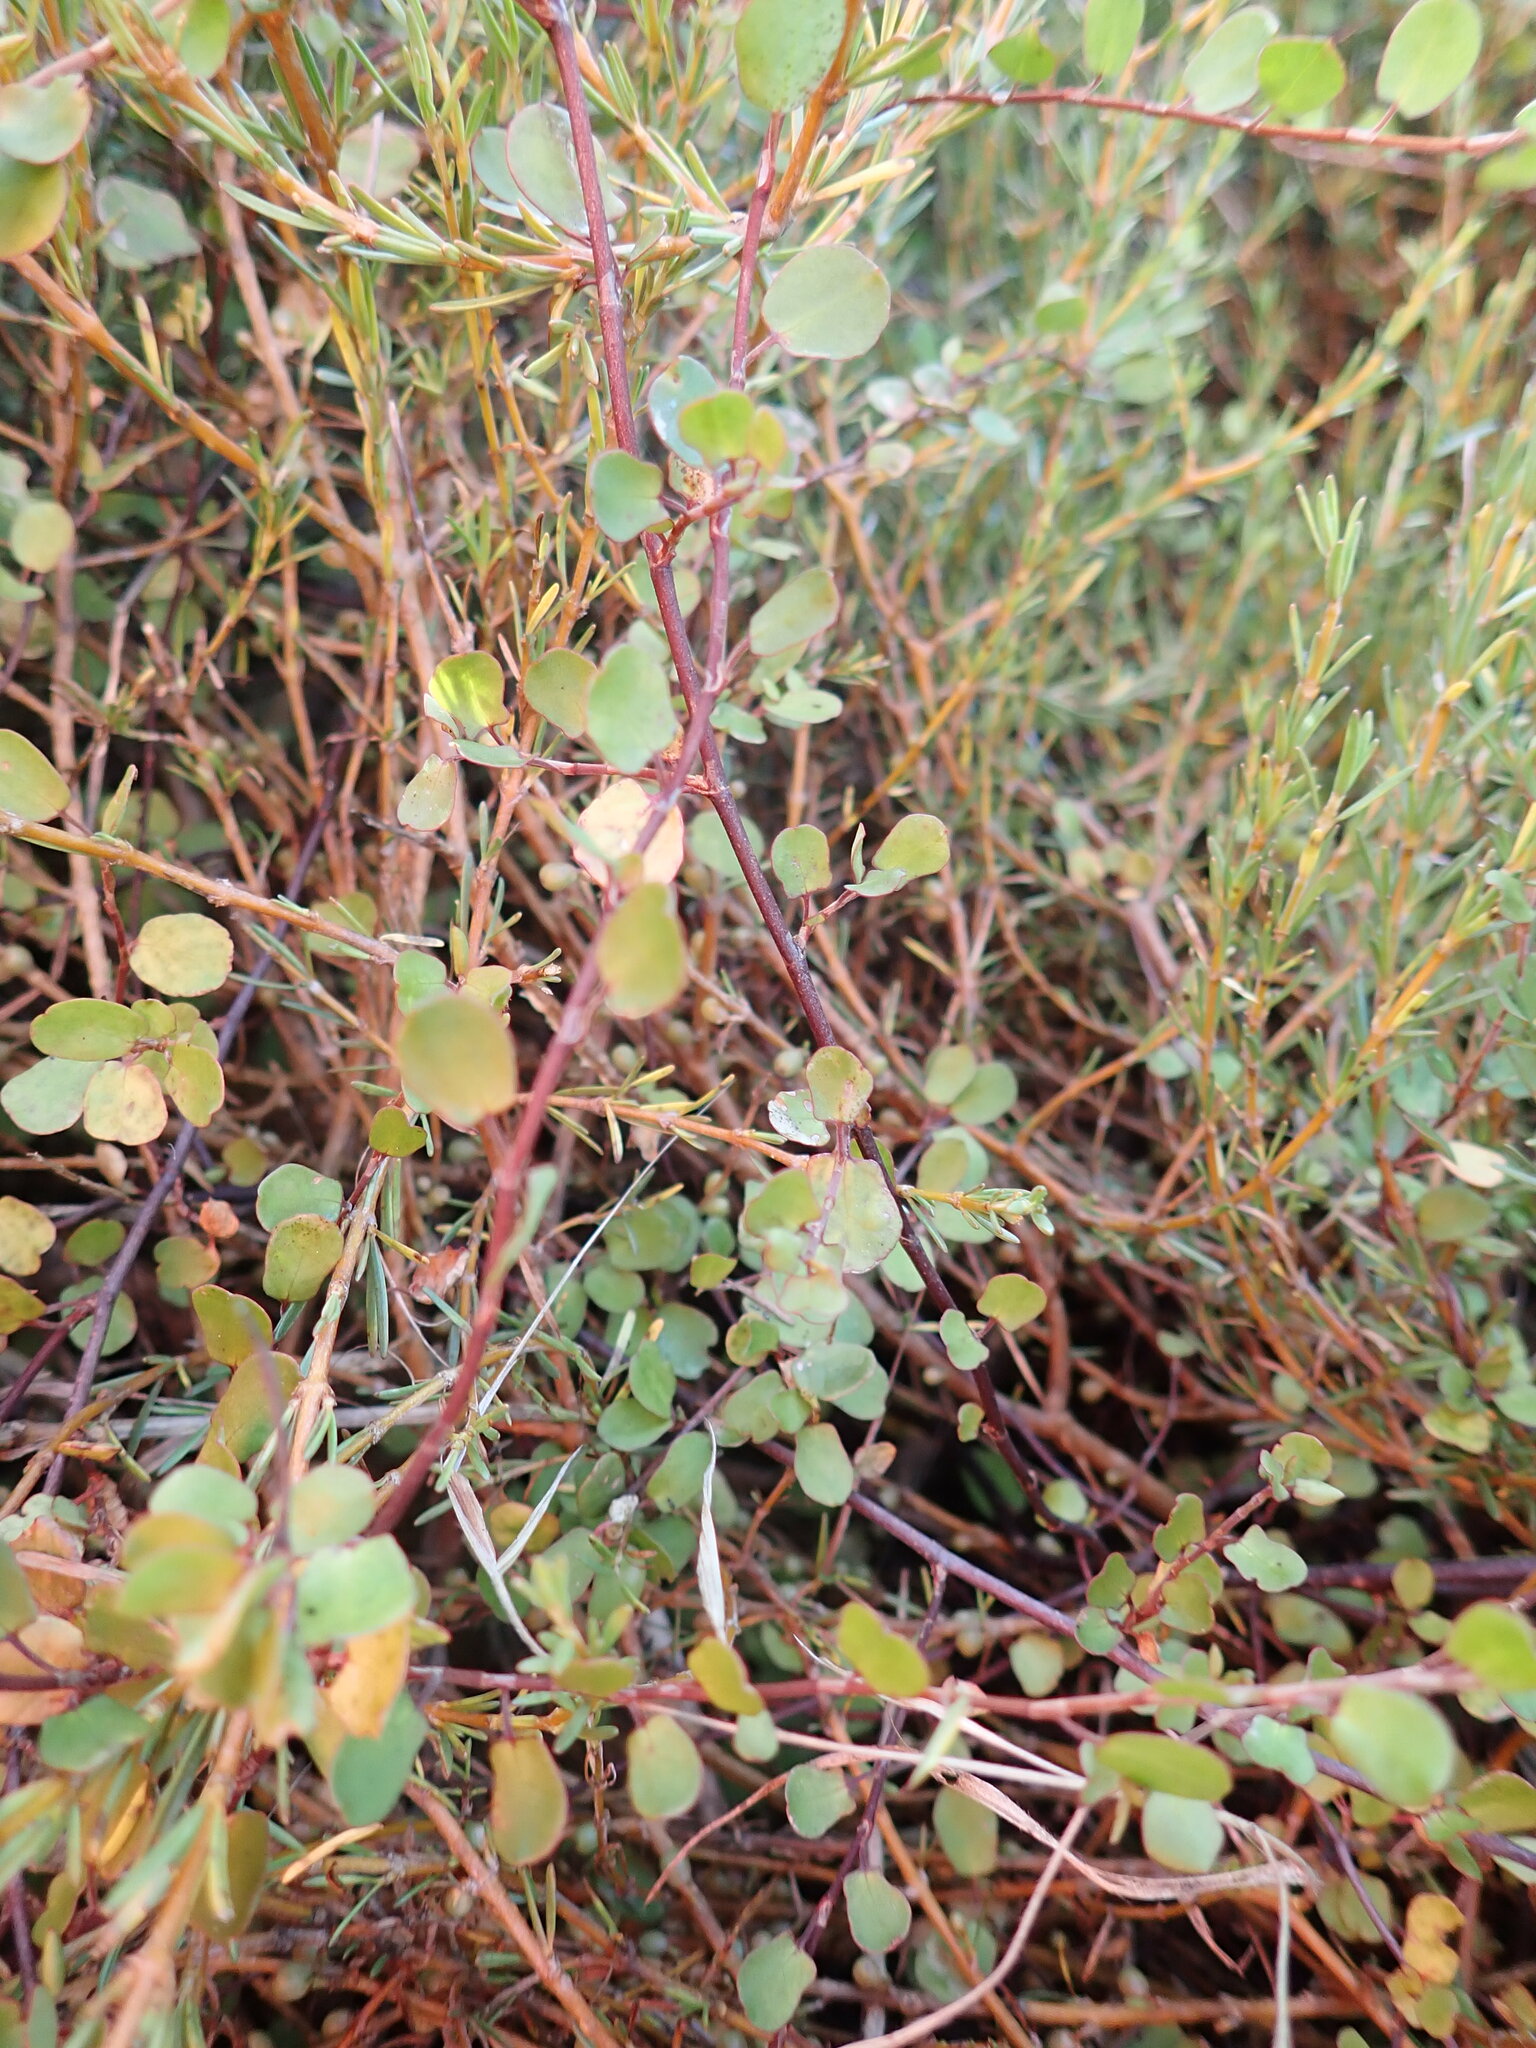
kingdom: Plantae
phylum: Tracheophyta
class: Magnoliopsida
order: Caryophyllales
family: Polygonaceae
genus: Muehlenbeckia
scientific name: Muehlenbeckia complexa
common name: Wireplant
